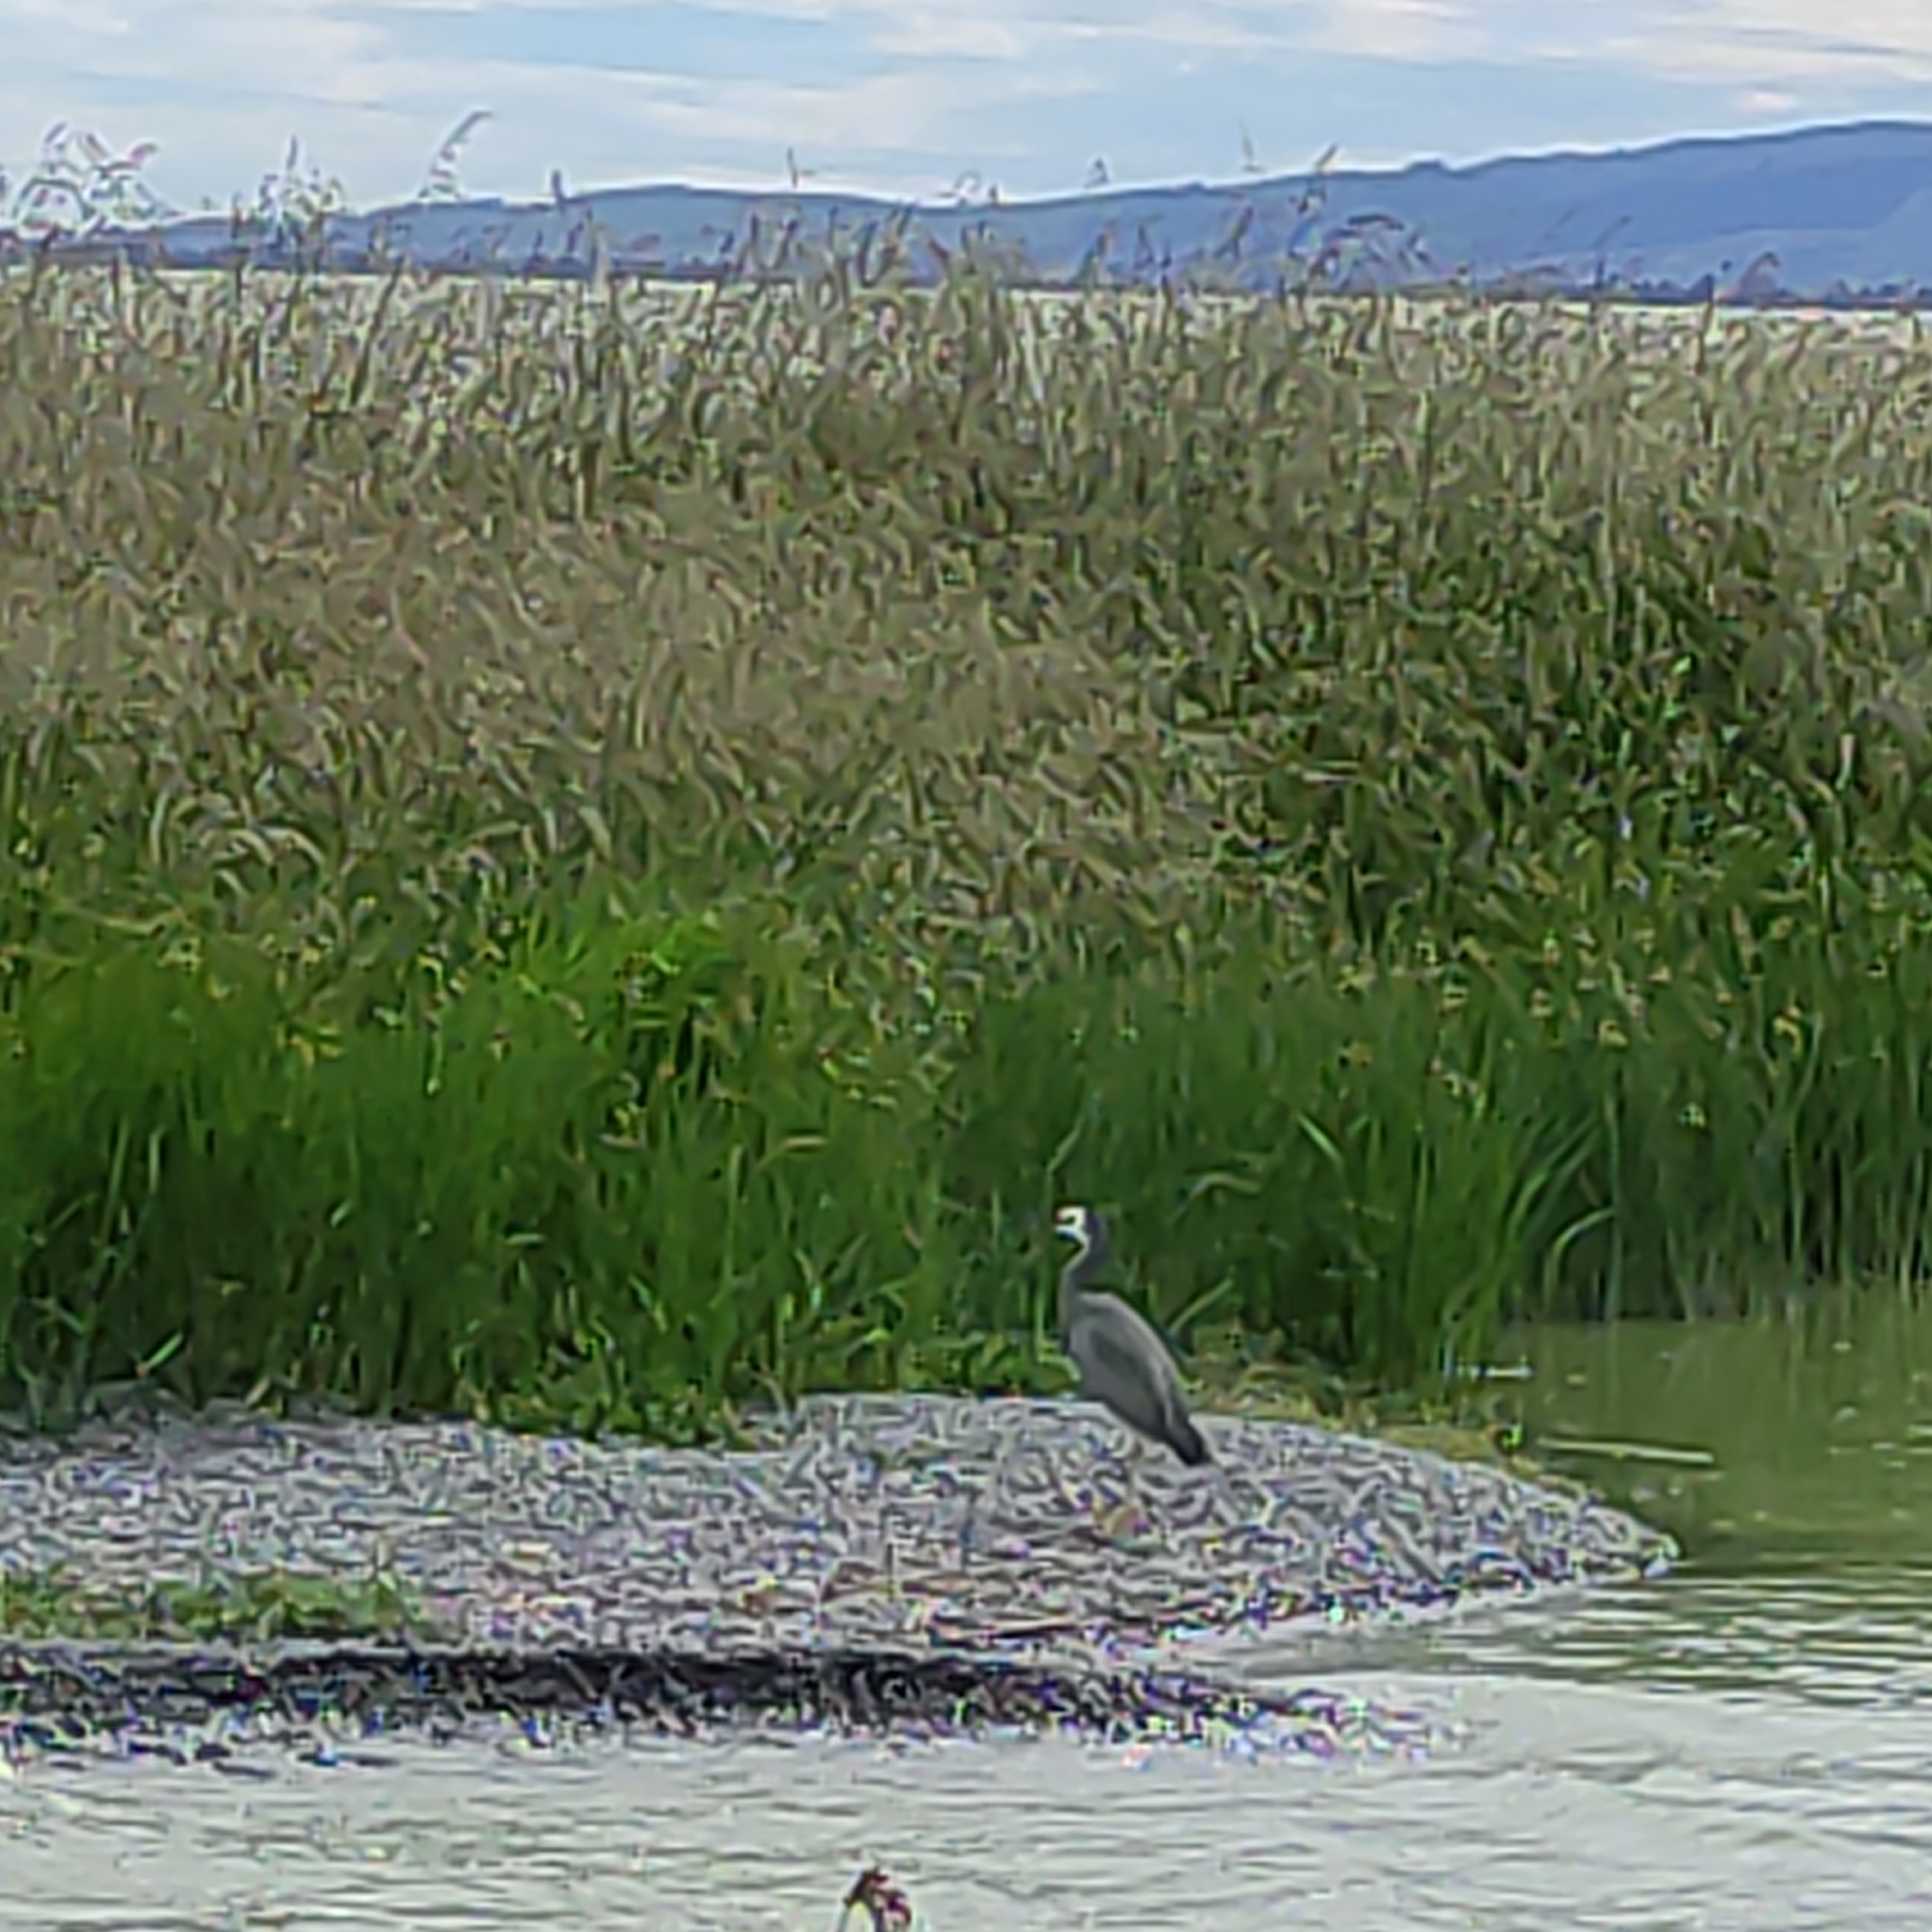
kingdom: Animalia
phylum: Chordata
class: Aves
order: Pelecaniformes
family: Ardeidae
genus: Egretta
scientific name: Egretta novaehollandiae
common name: White-faced heron
